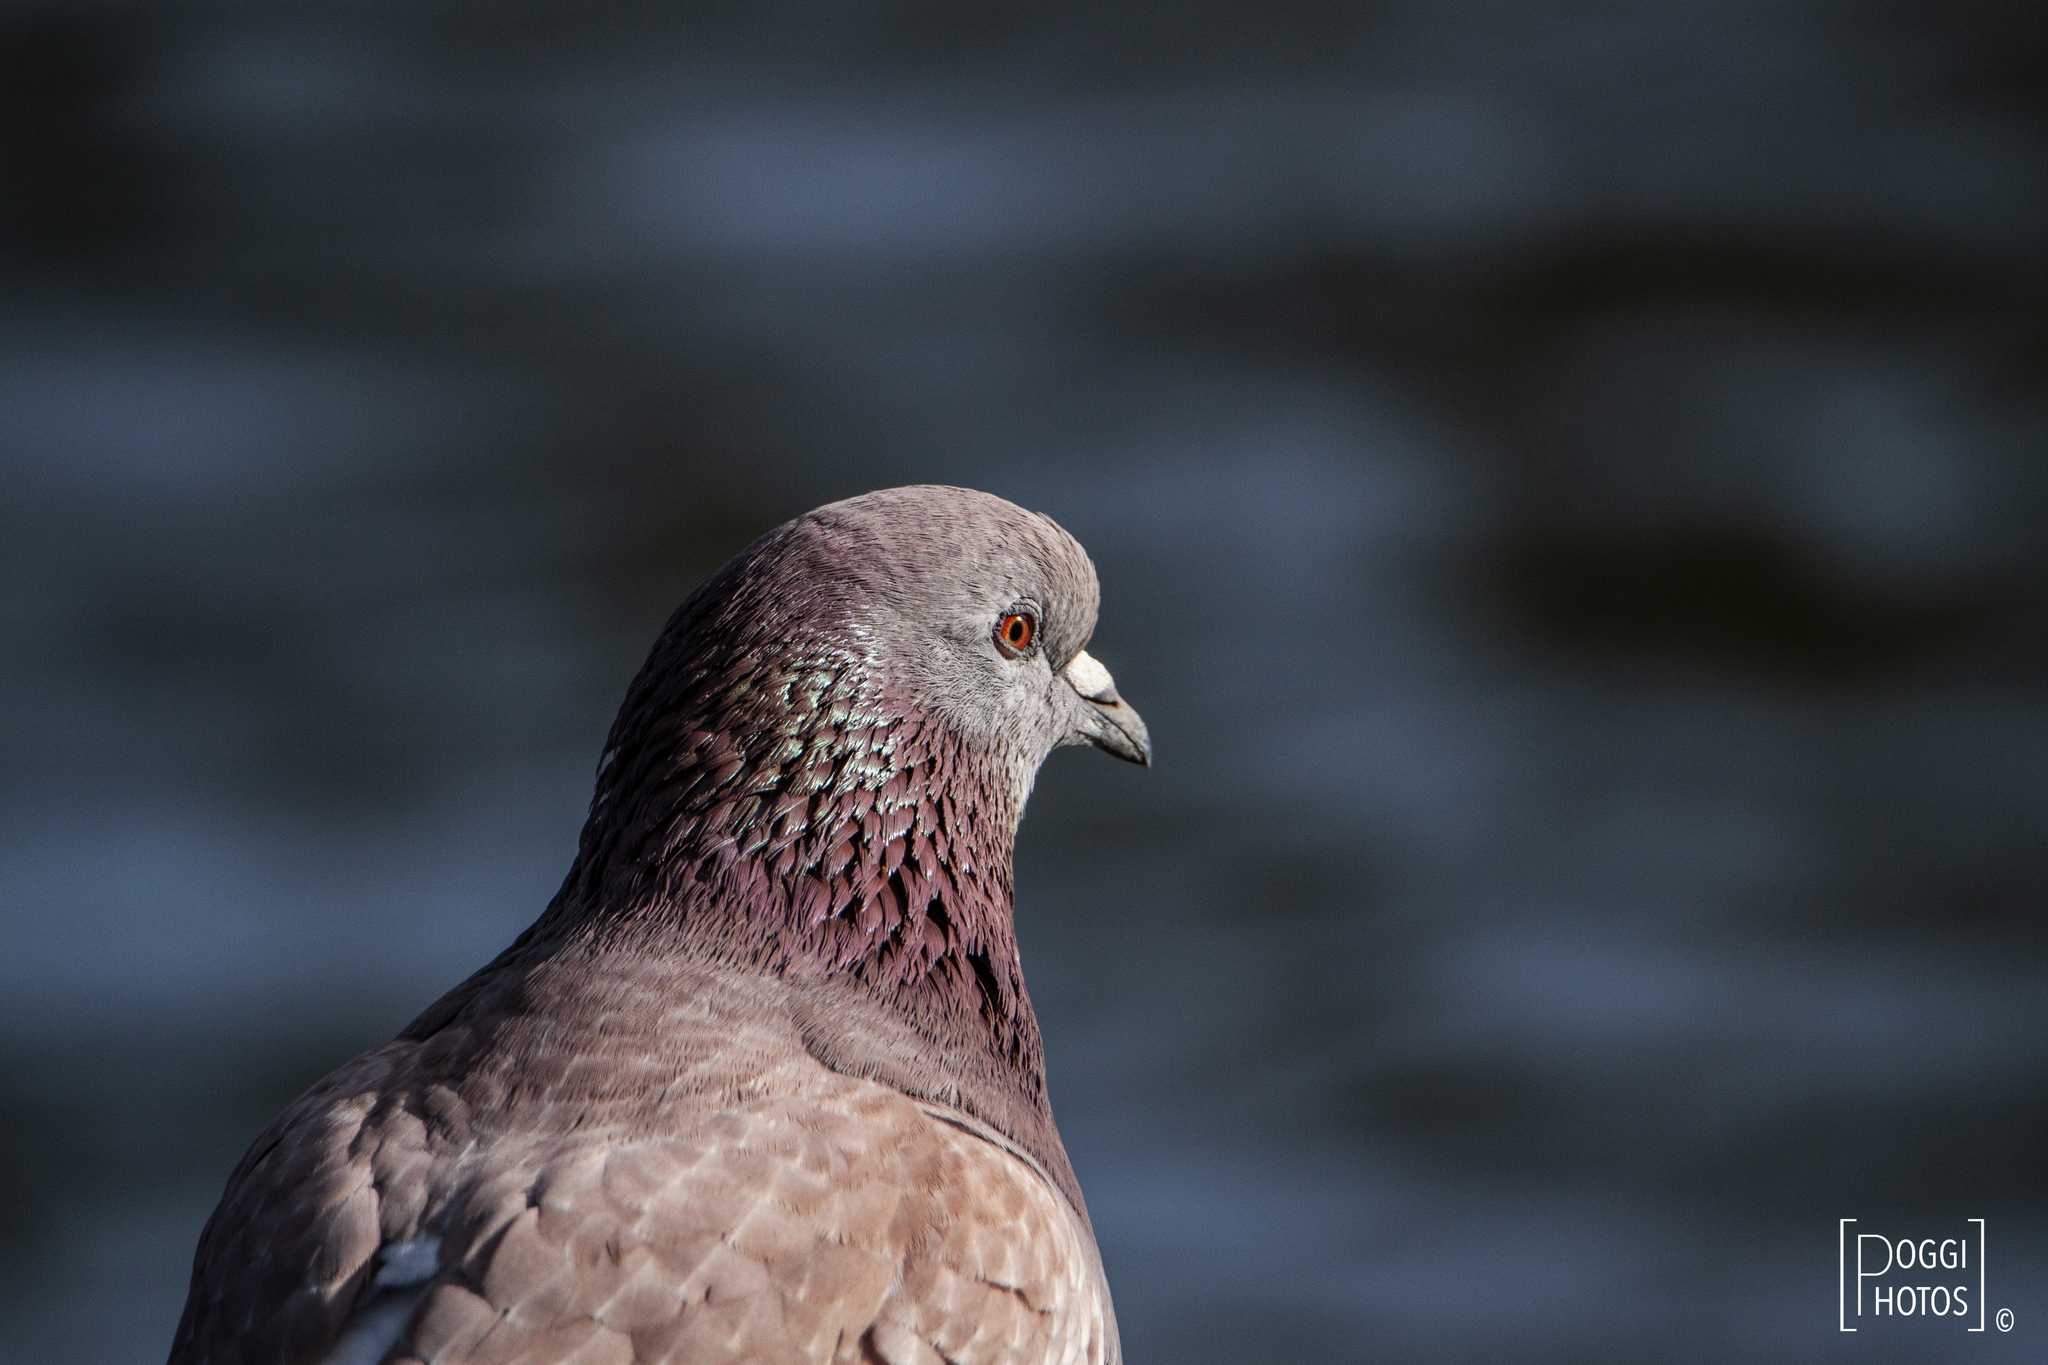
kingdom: Animalia
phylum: Chordata
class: Aves
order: Columbiformes
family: Columbidae
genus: Columba
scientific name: Columba livia
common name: Rock pigeon
